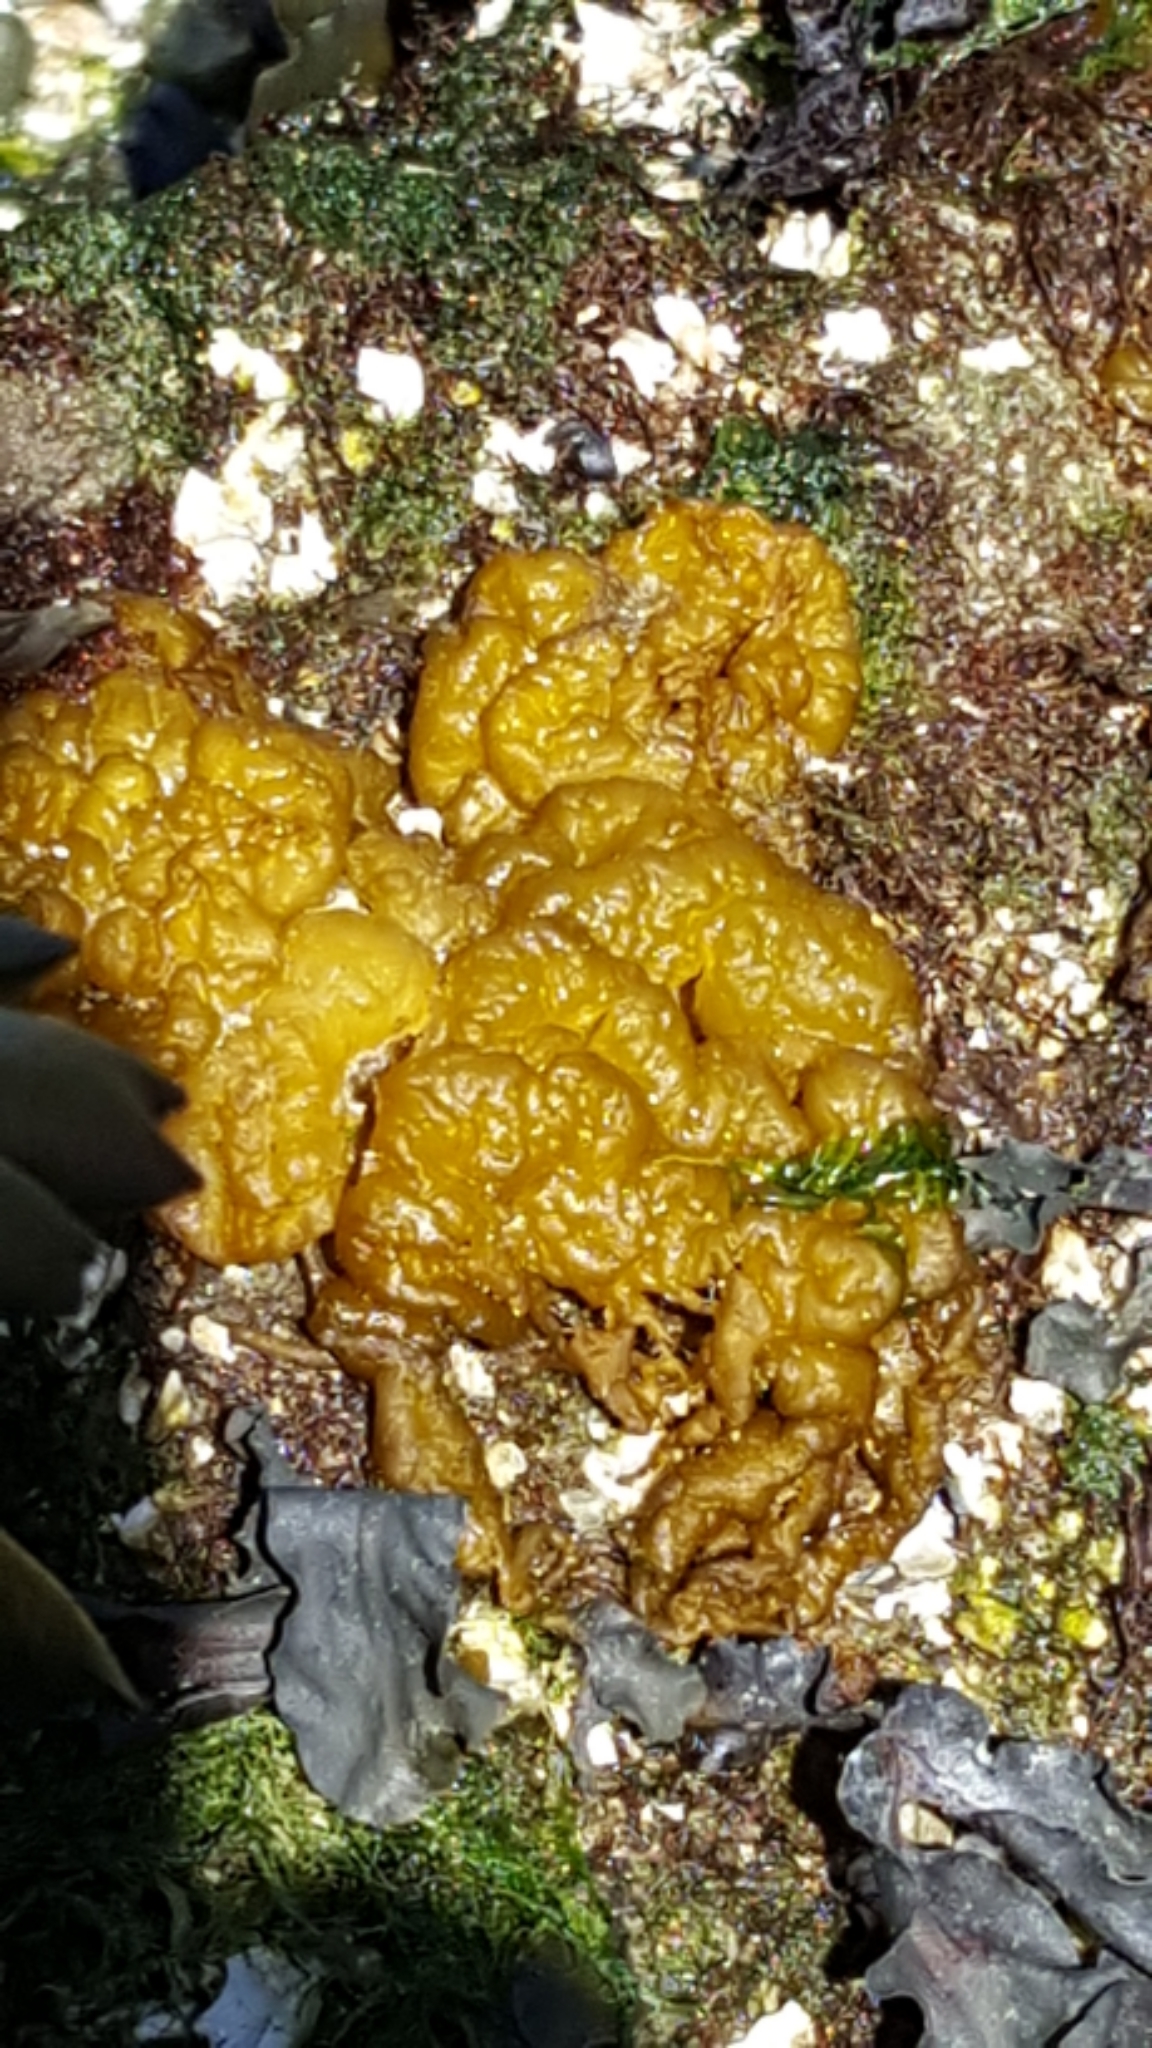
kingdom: Chromista
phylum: Ochrophyta
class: Phaeophyceae
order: Ectocarpales
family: Chordariaceae
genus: Leathesia
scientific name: Leathesia marina
